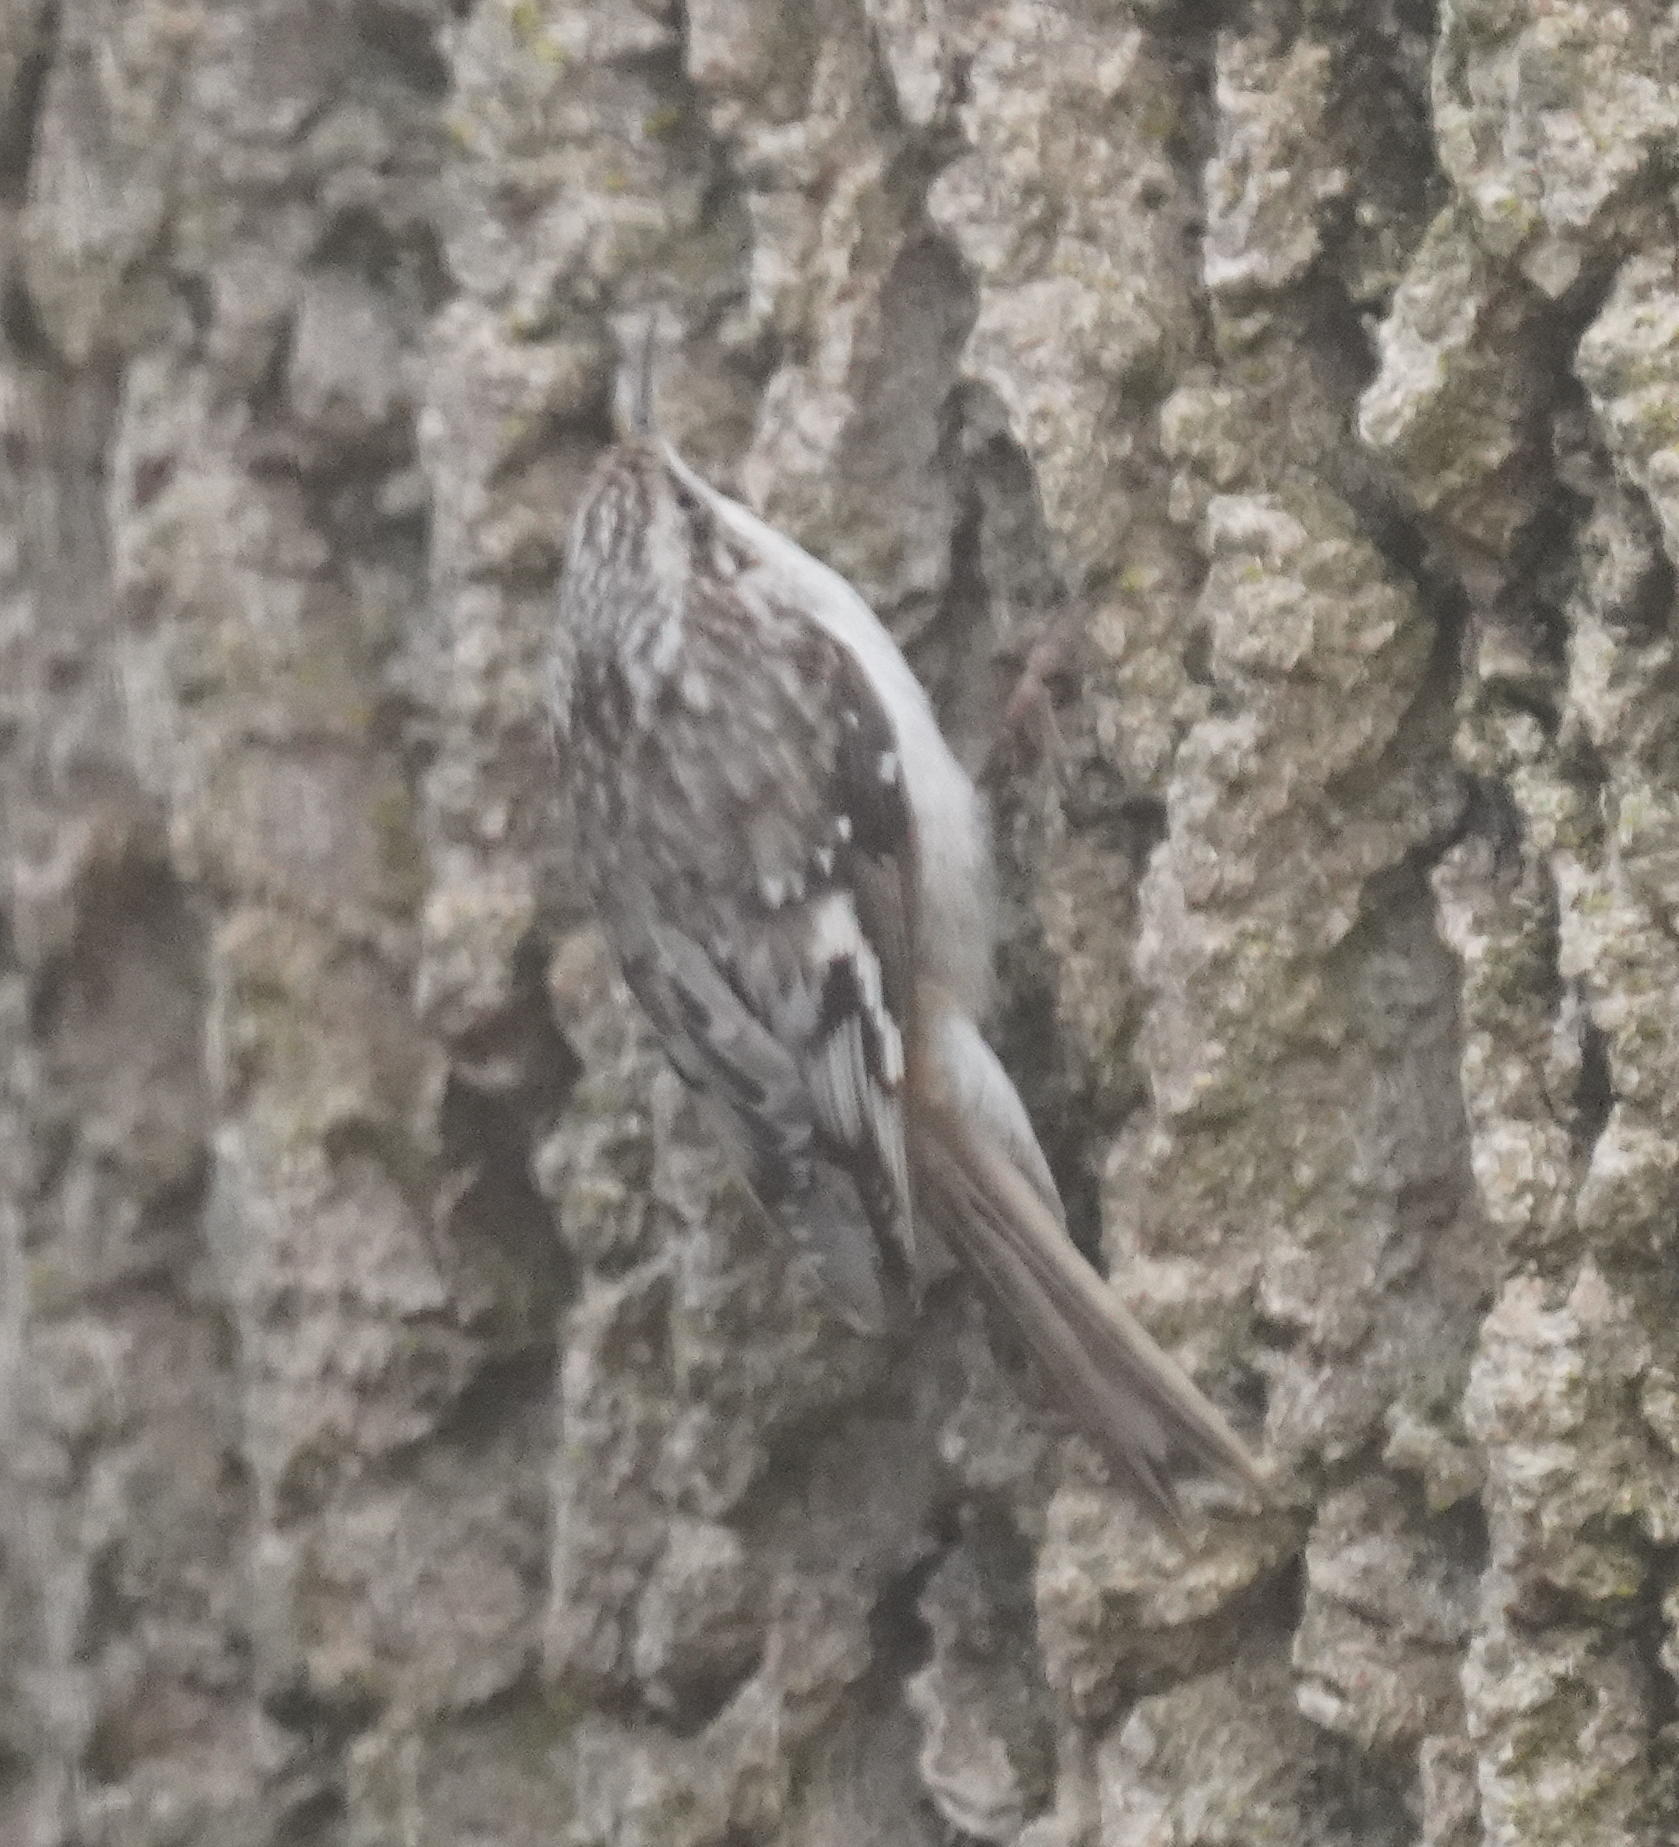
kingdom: Animalia
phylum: Chordata
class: Aves
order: Passeriformes
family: Certhiidae
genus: Certhia
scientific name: Certhia americana
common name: Brown creeper
